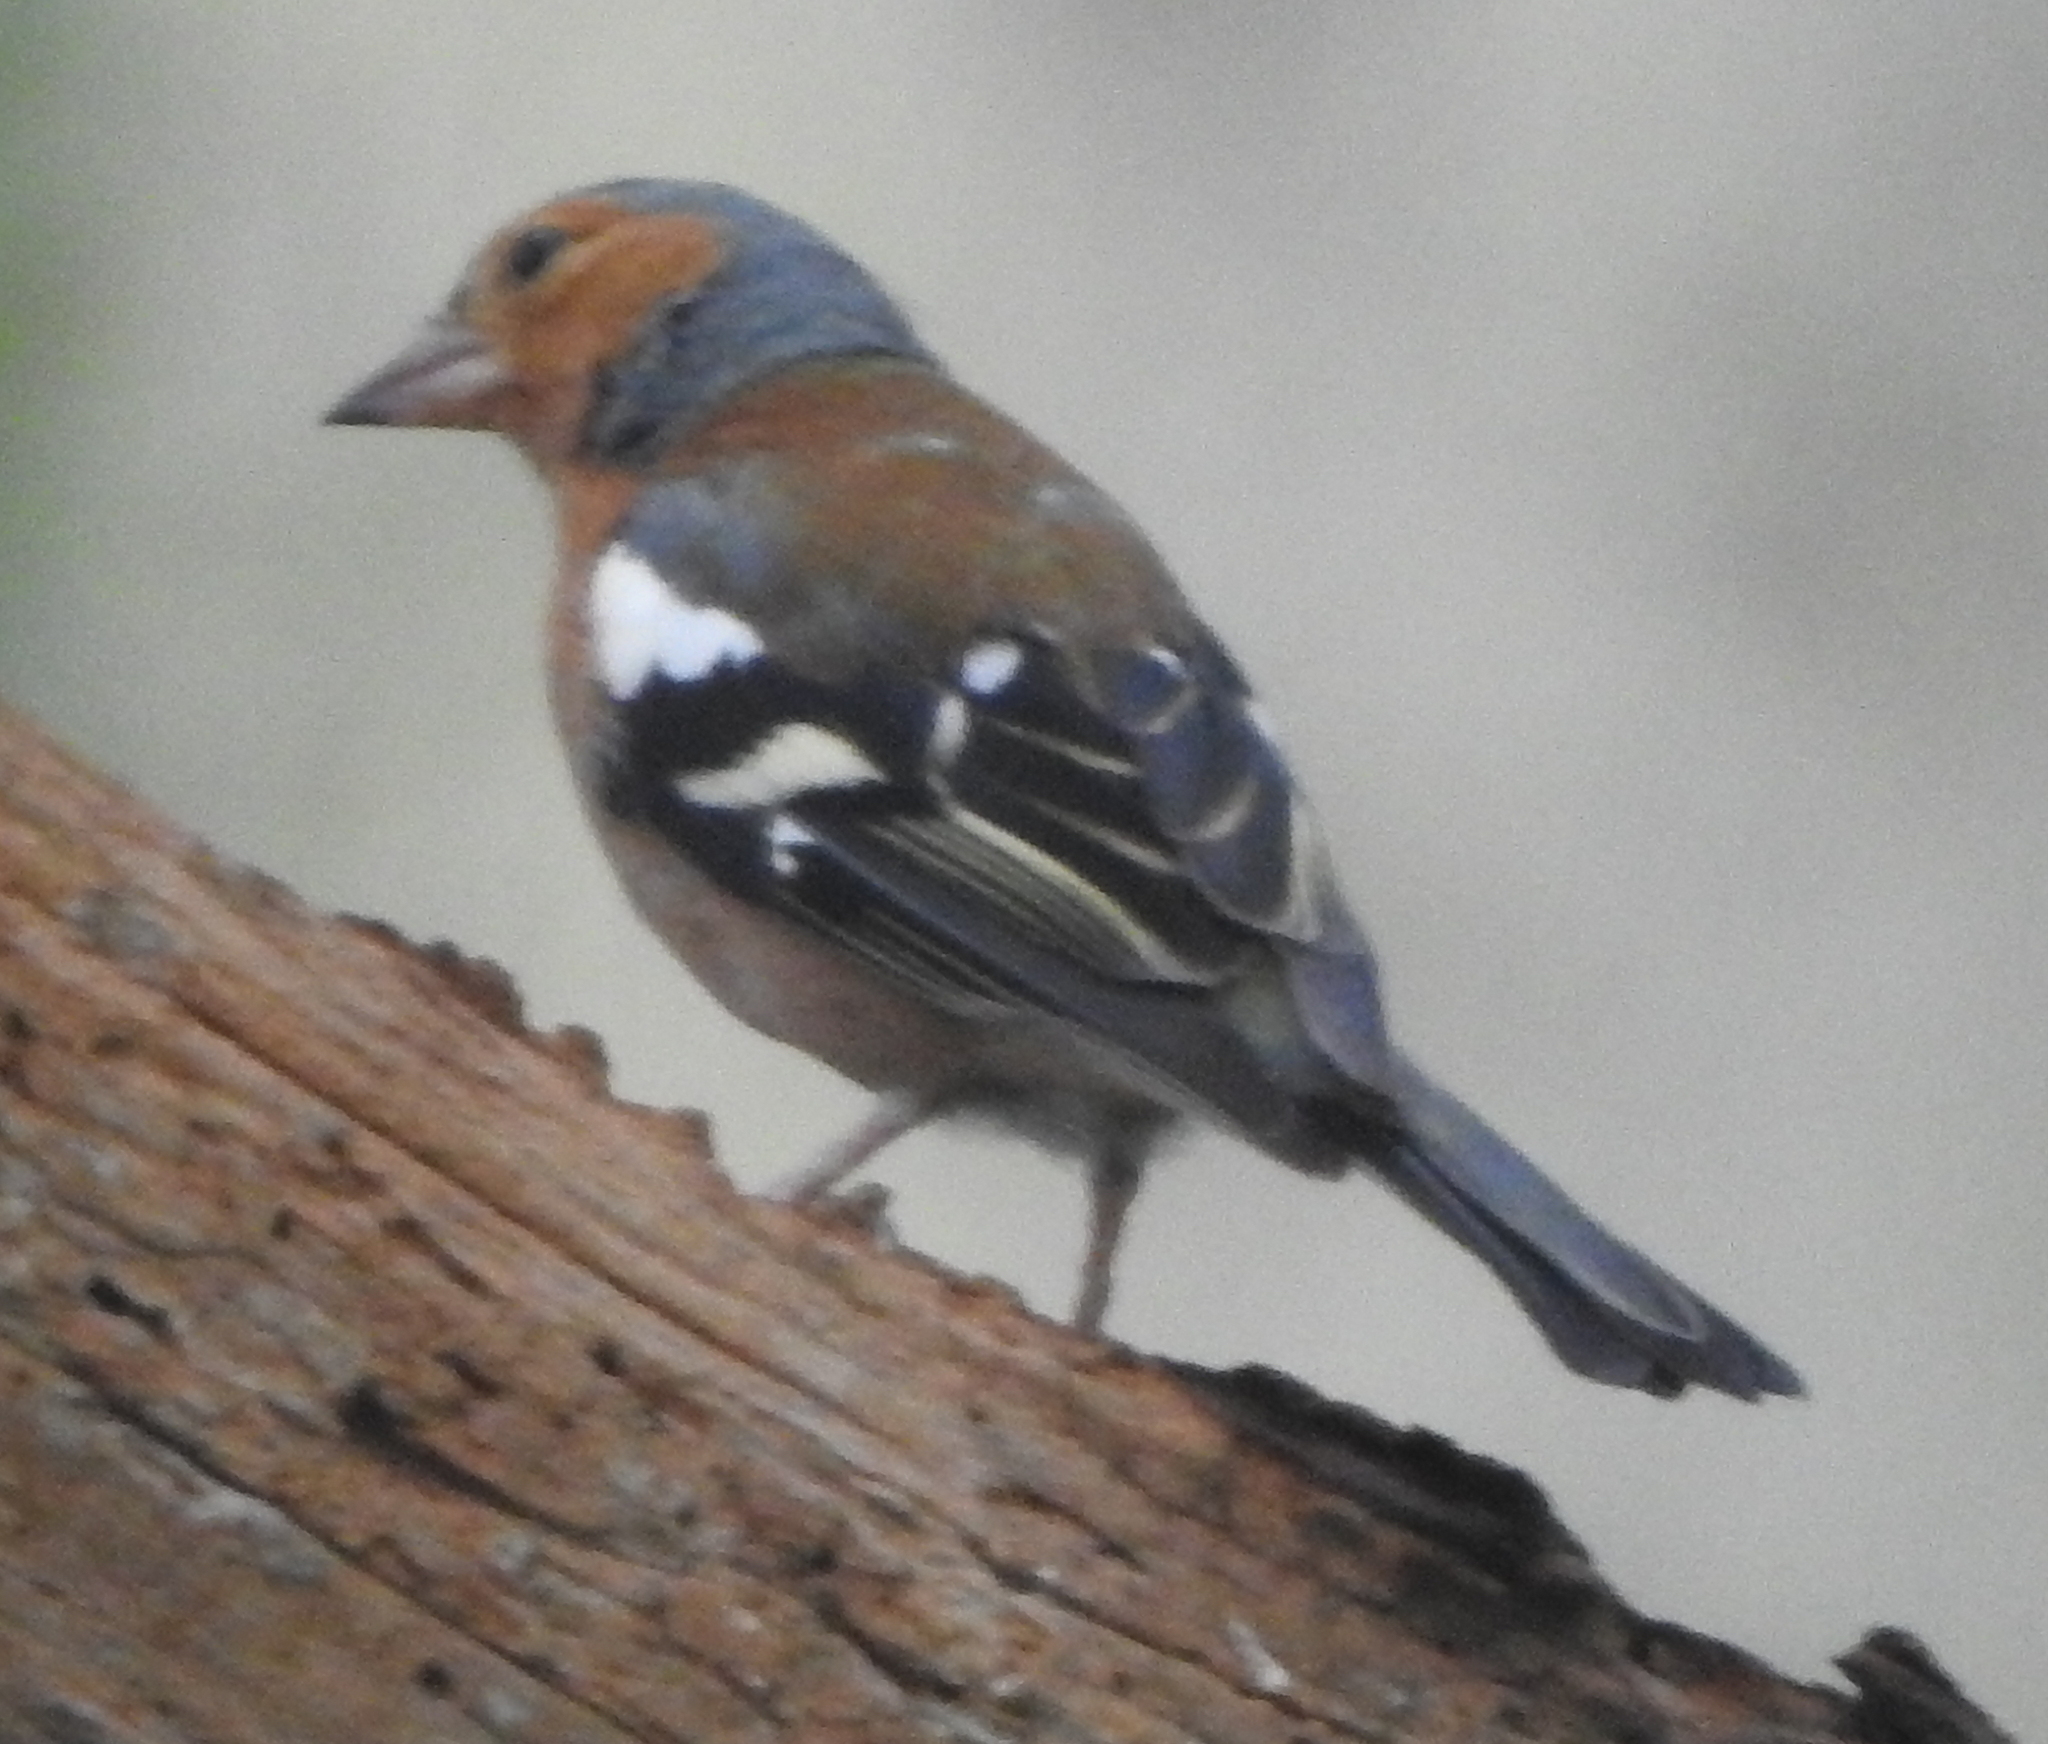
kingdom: Animalia
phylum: Chordata
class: Aves
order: Passeriformes
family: Fringillidae
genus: Fringilla
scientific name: Fringilla coelebs
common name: Common chaffinch
